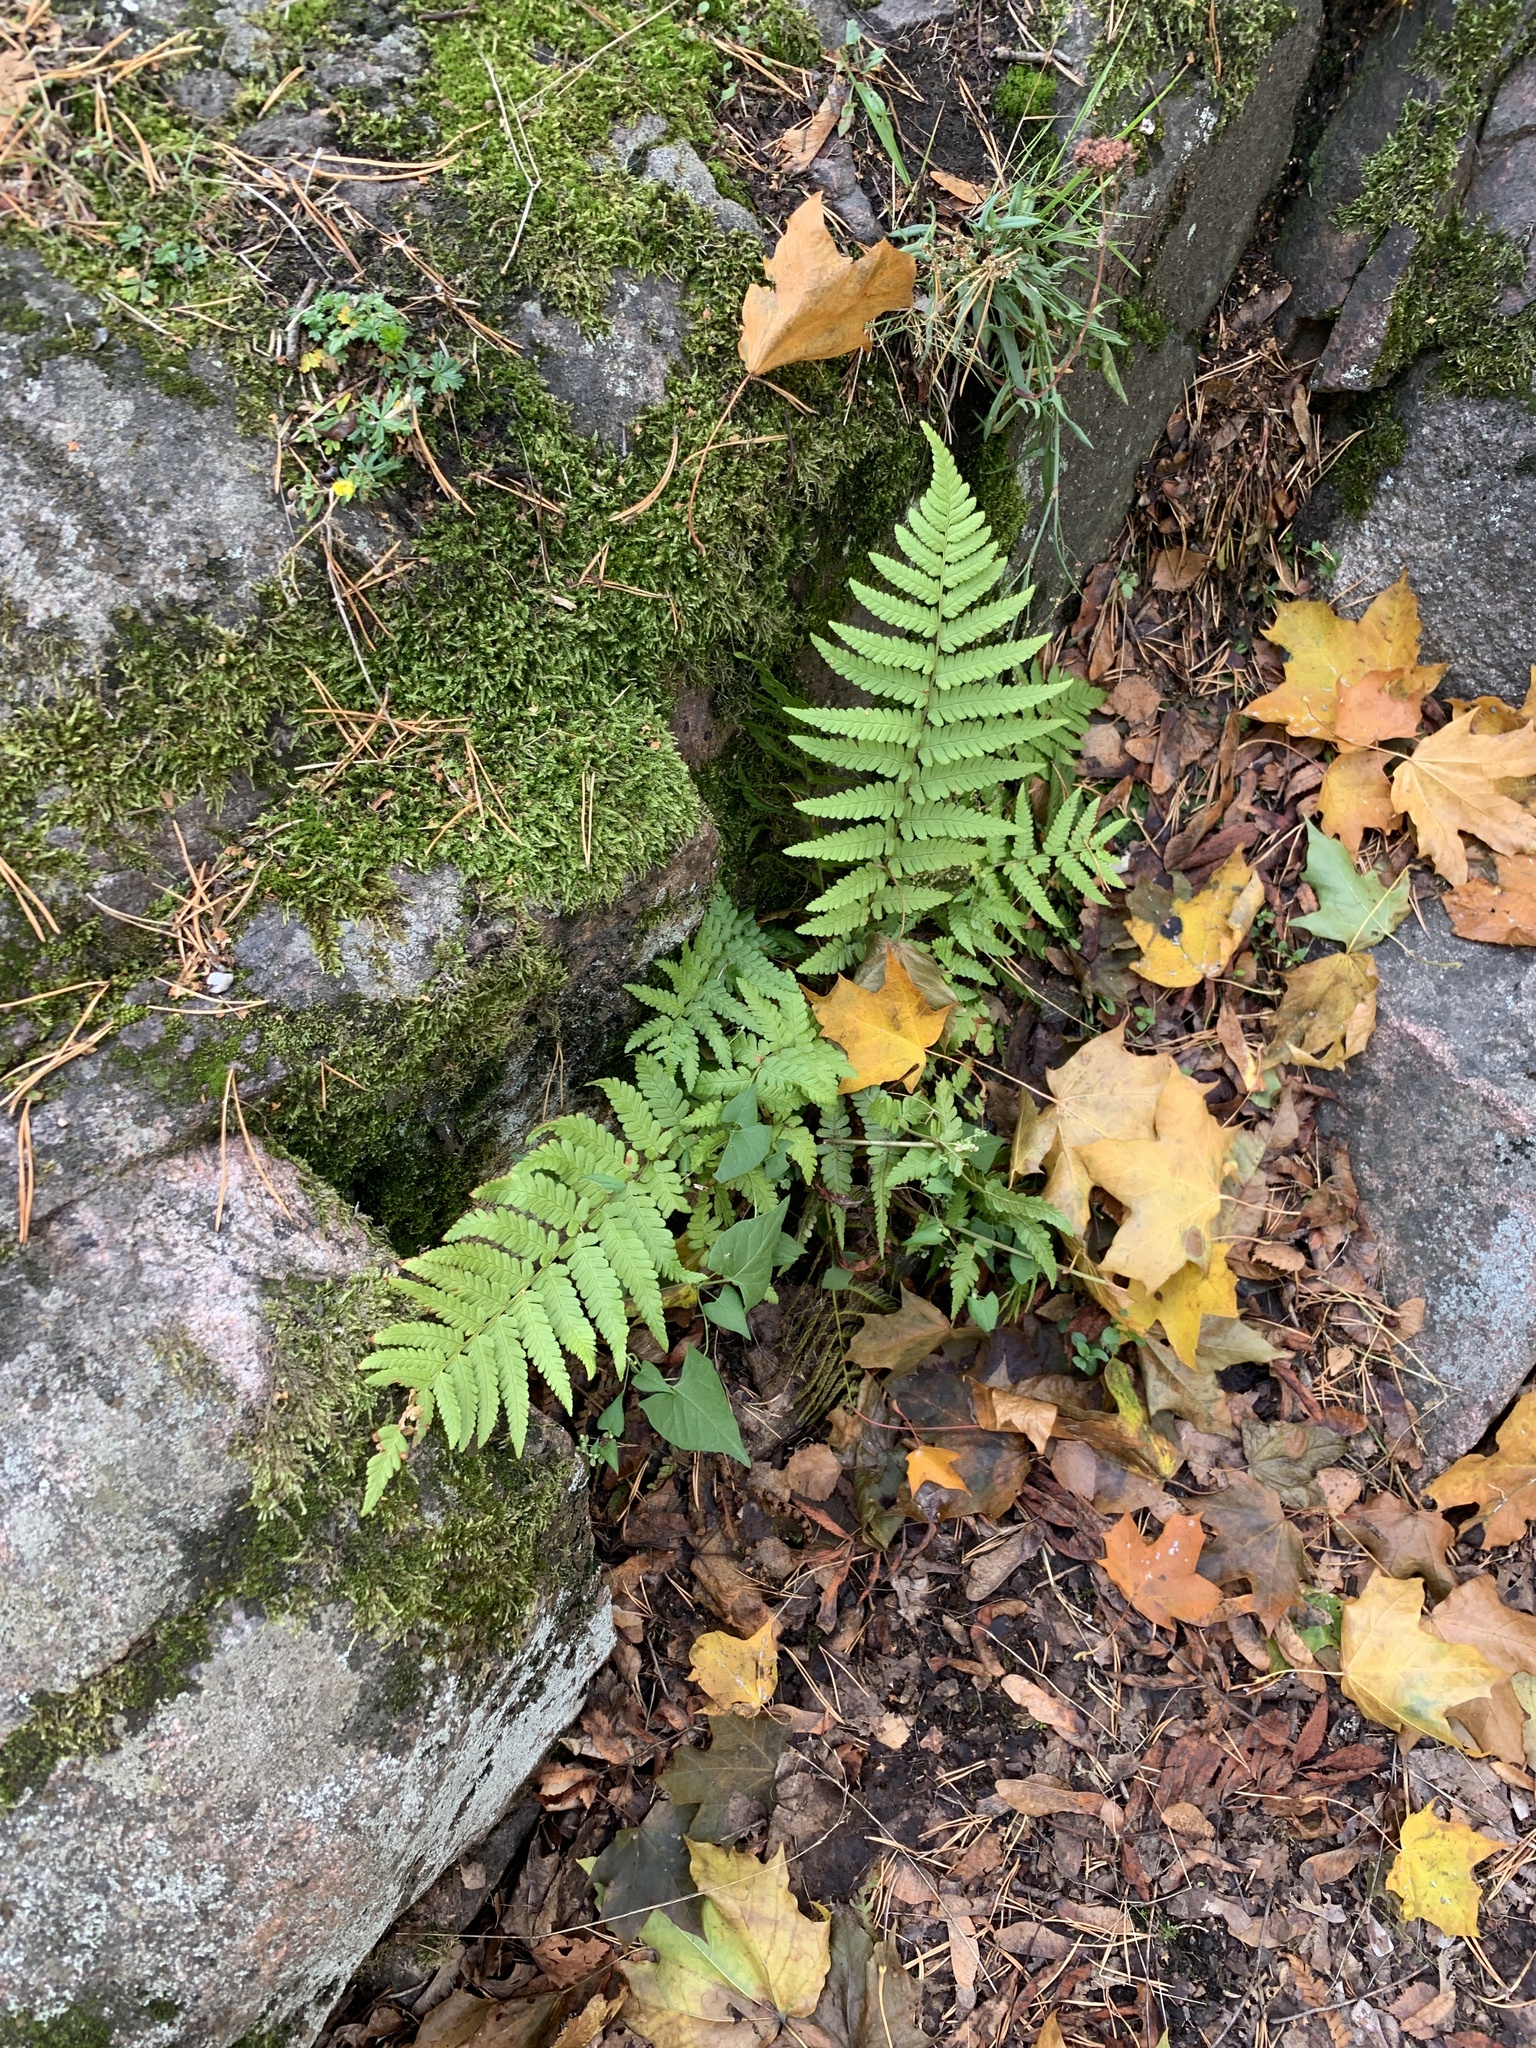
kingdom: Plantae
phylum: Tracheophyta
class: Polypodiopsida
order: Polypodiales
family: Dryopteridaceae
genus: Dryopteris
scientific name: Dryopteris filix-mas
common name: Male fern
